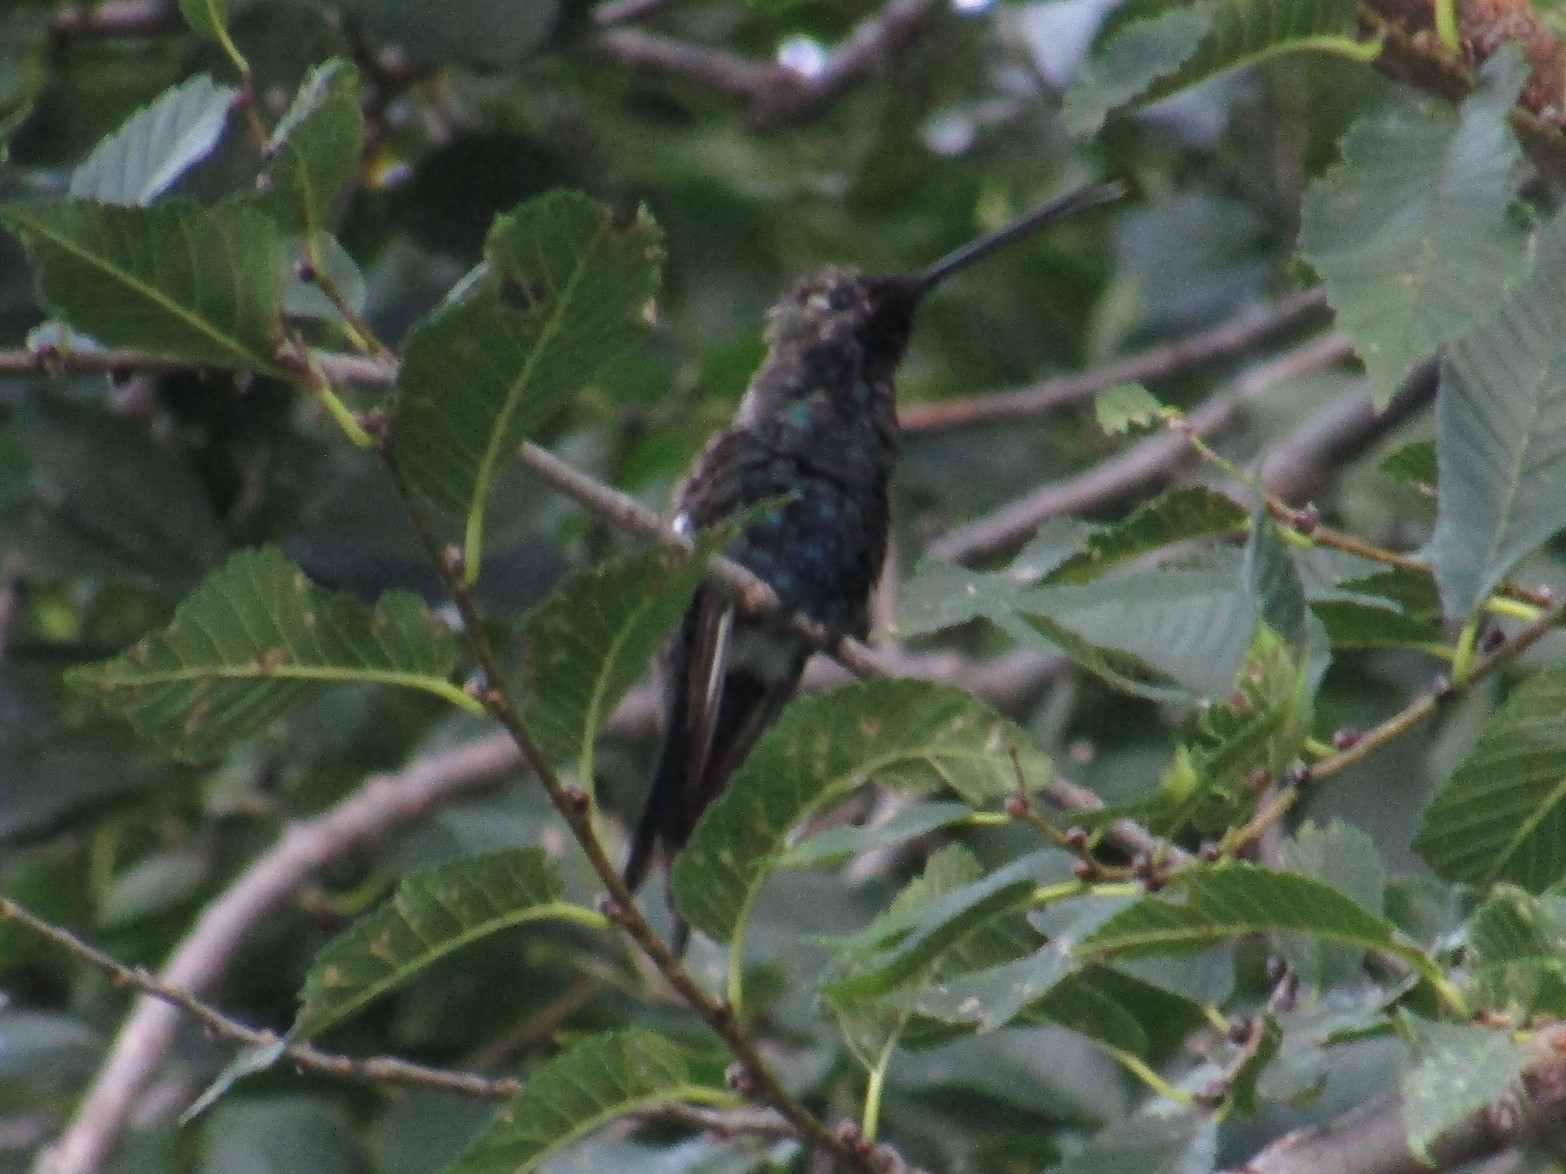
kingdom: Animalia
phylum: Chordata
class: Aves
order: Apodiformes
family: Trochilidae
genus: Heliomaster
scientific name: Heliomaster furcifer
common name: Blue-tufted starthroat
